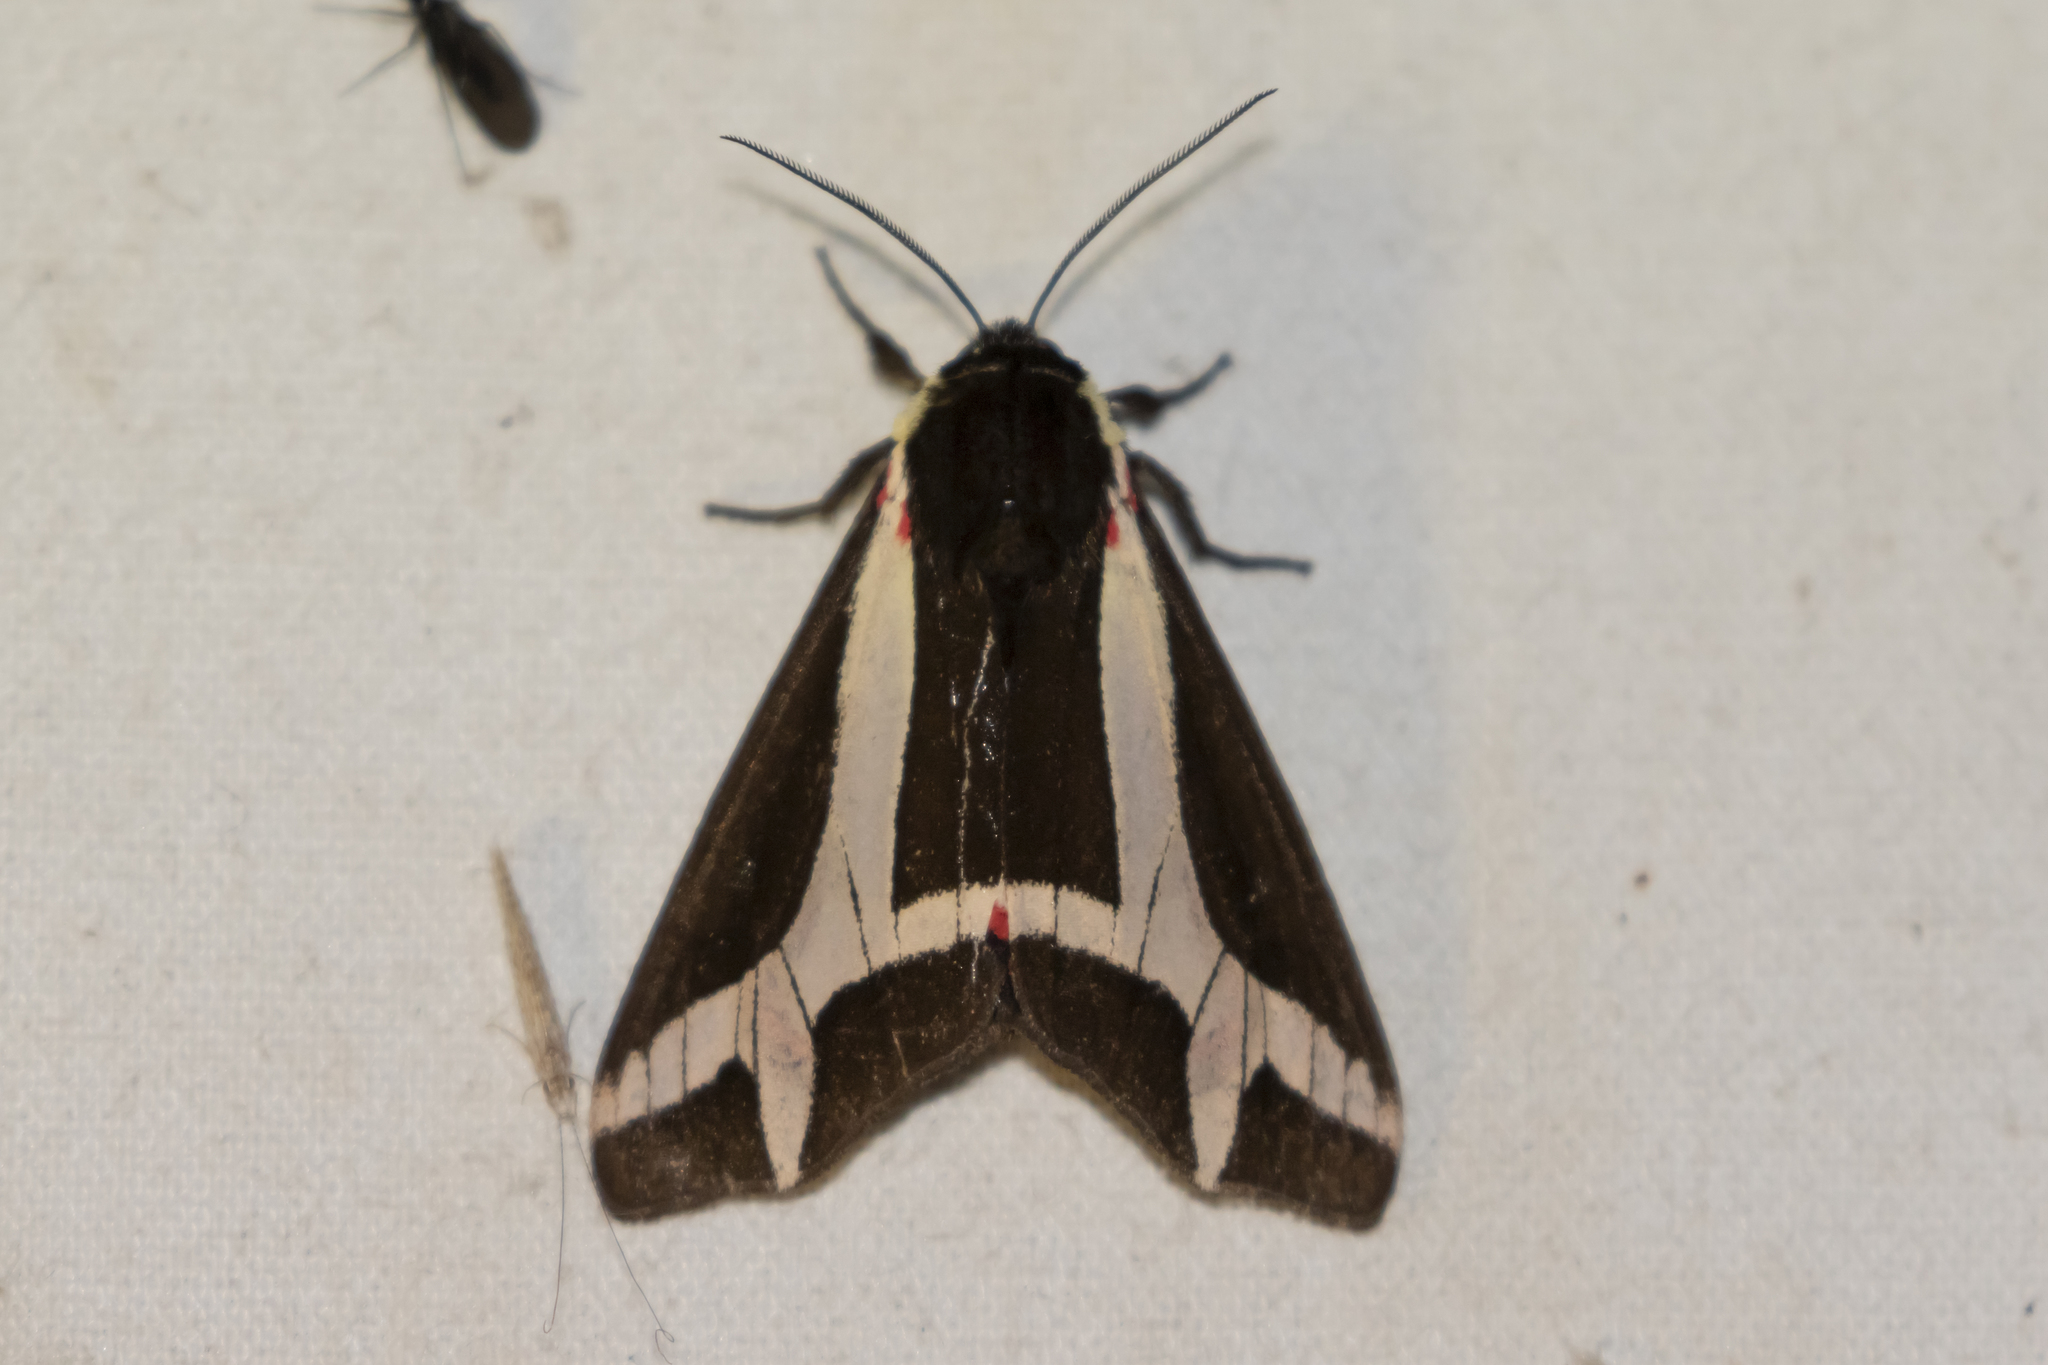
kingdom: Animalia
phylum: Arthropoda
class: Insecta
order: Lepidoptera
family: Erebidae
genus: Dysschema
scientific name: Dysschema sacrifica
